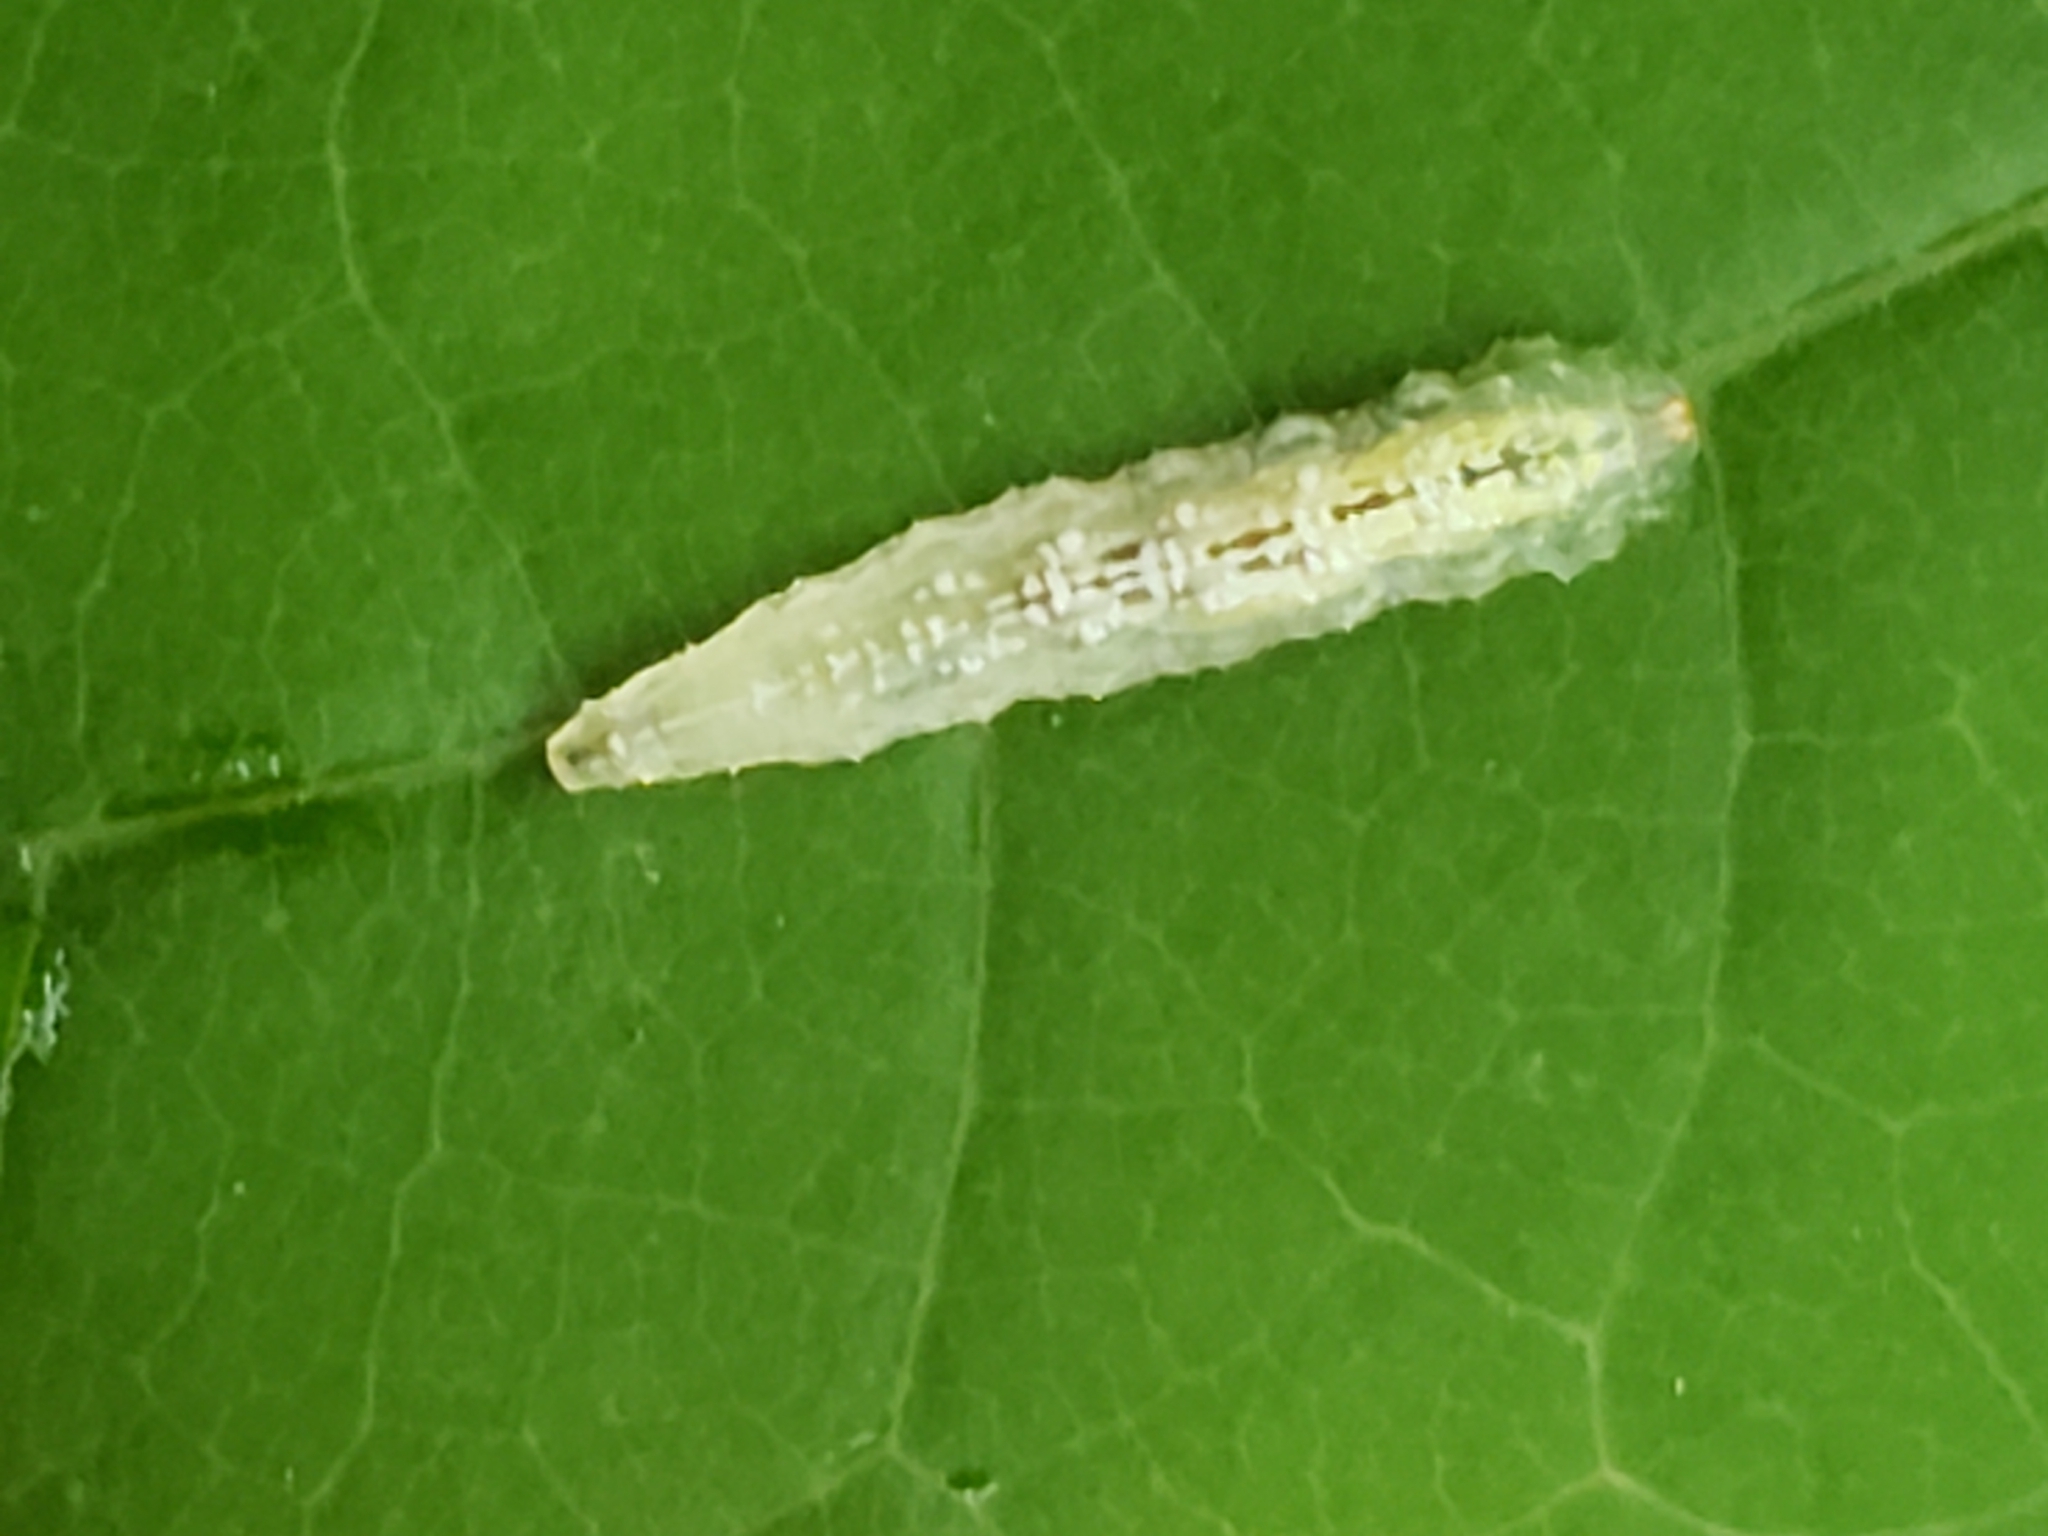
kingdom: Animalia
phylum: Arthropoda
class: Insecta
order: Diptera
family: Syrphidae
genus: Syrphus
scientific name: Syrphus
